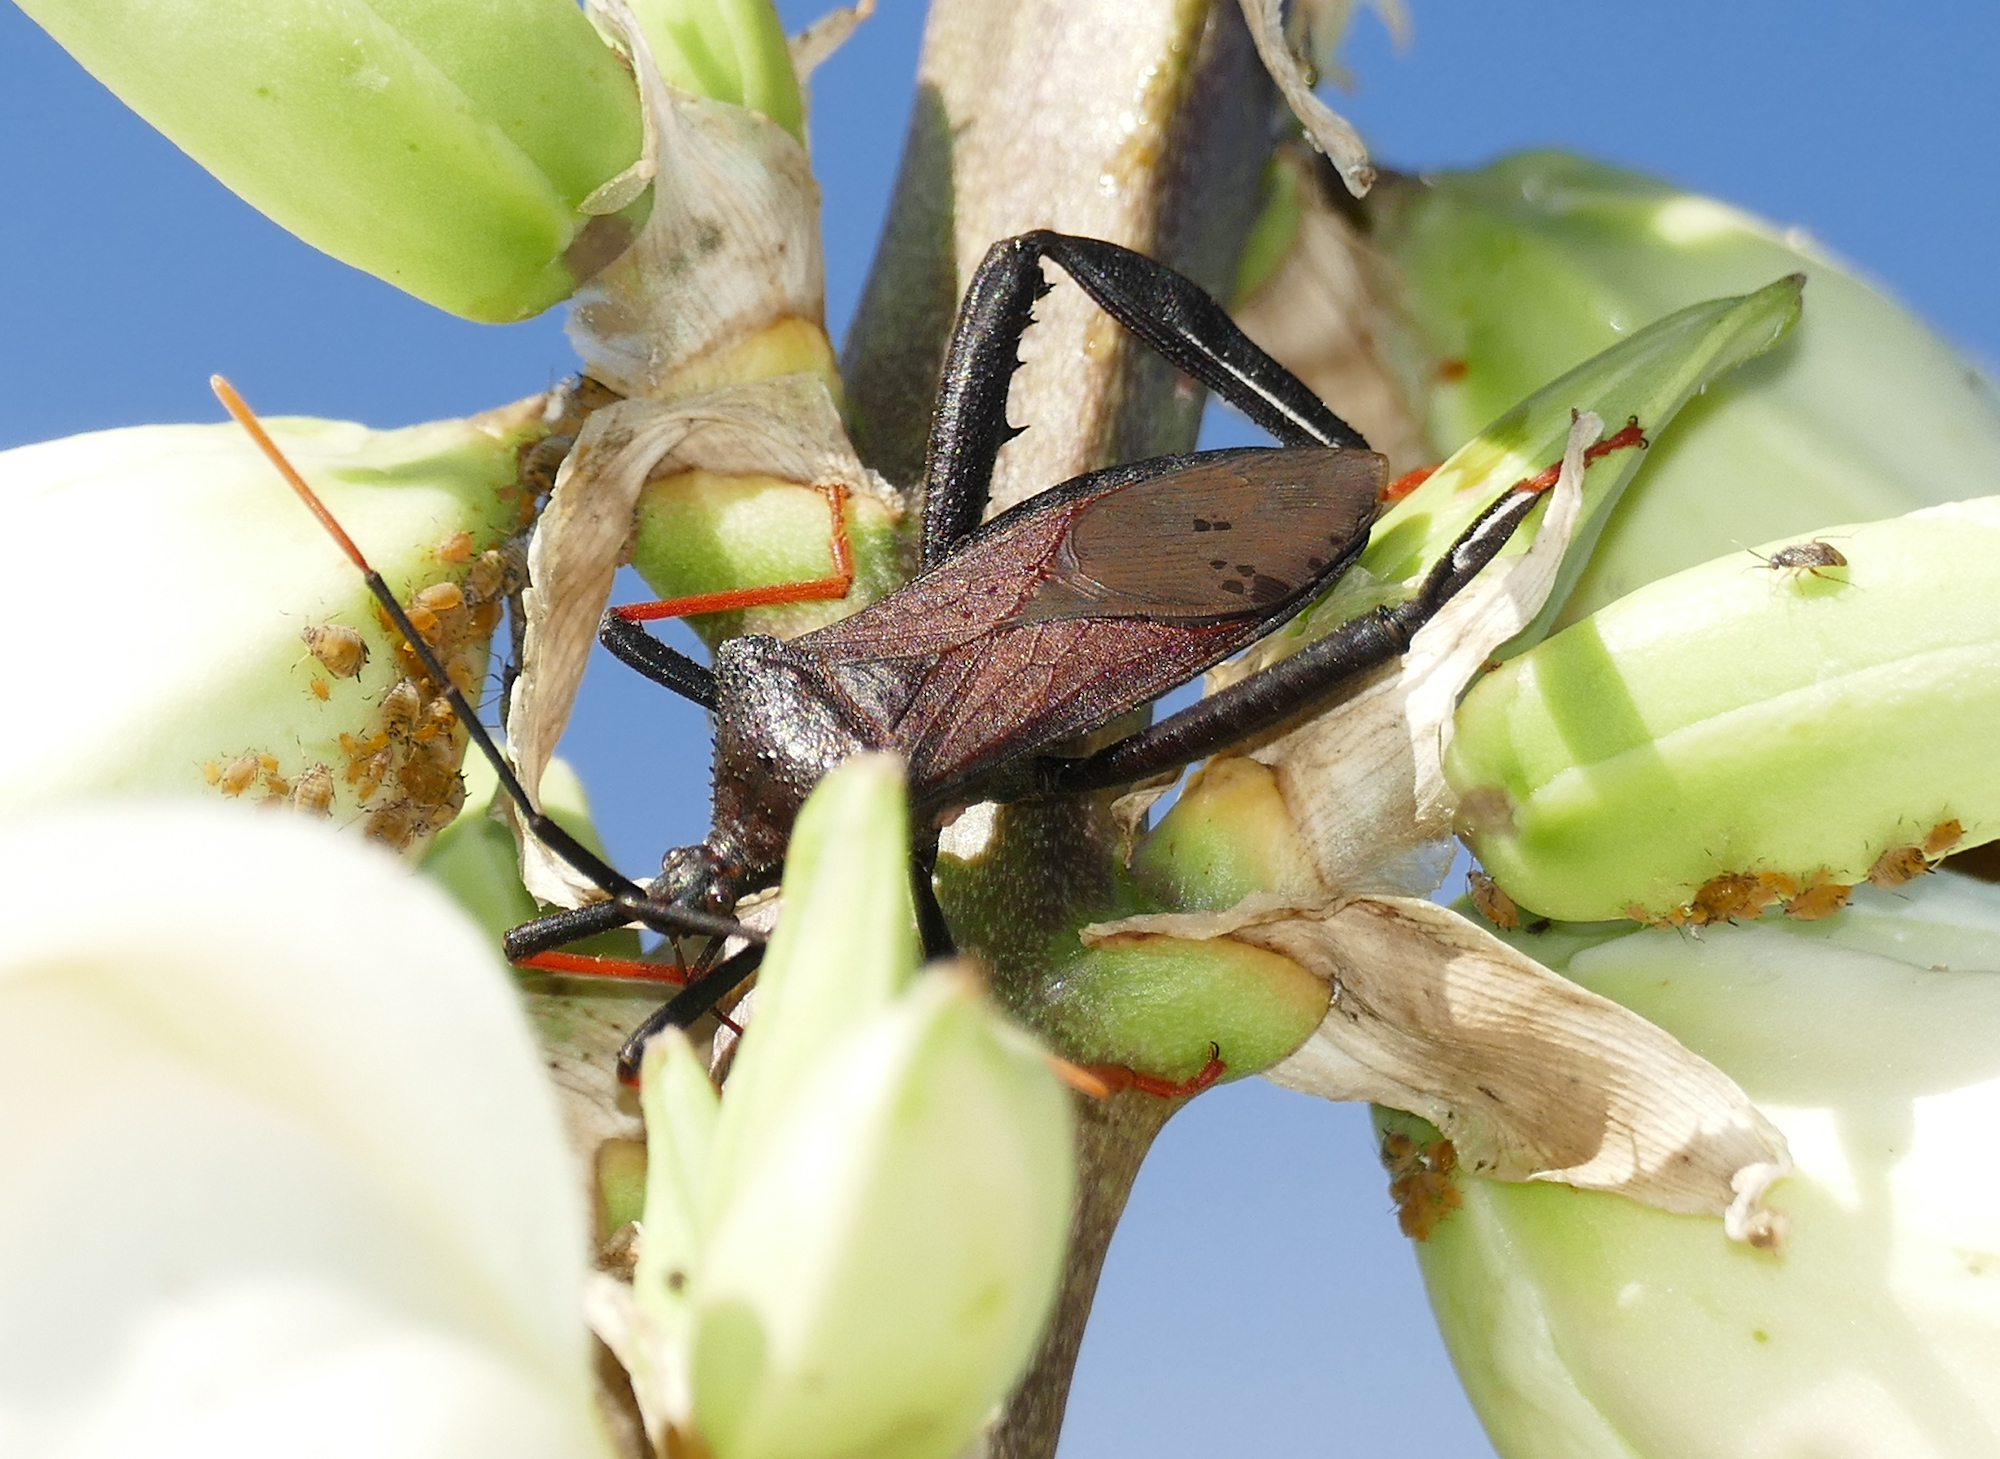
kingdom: Animalia
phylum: Arthropoda
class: Insecta
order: Hemiptera
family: Coreidae
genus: Acanthocephala
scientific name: Acanthocephala thomasi
